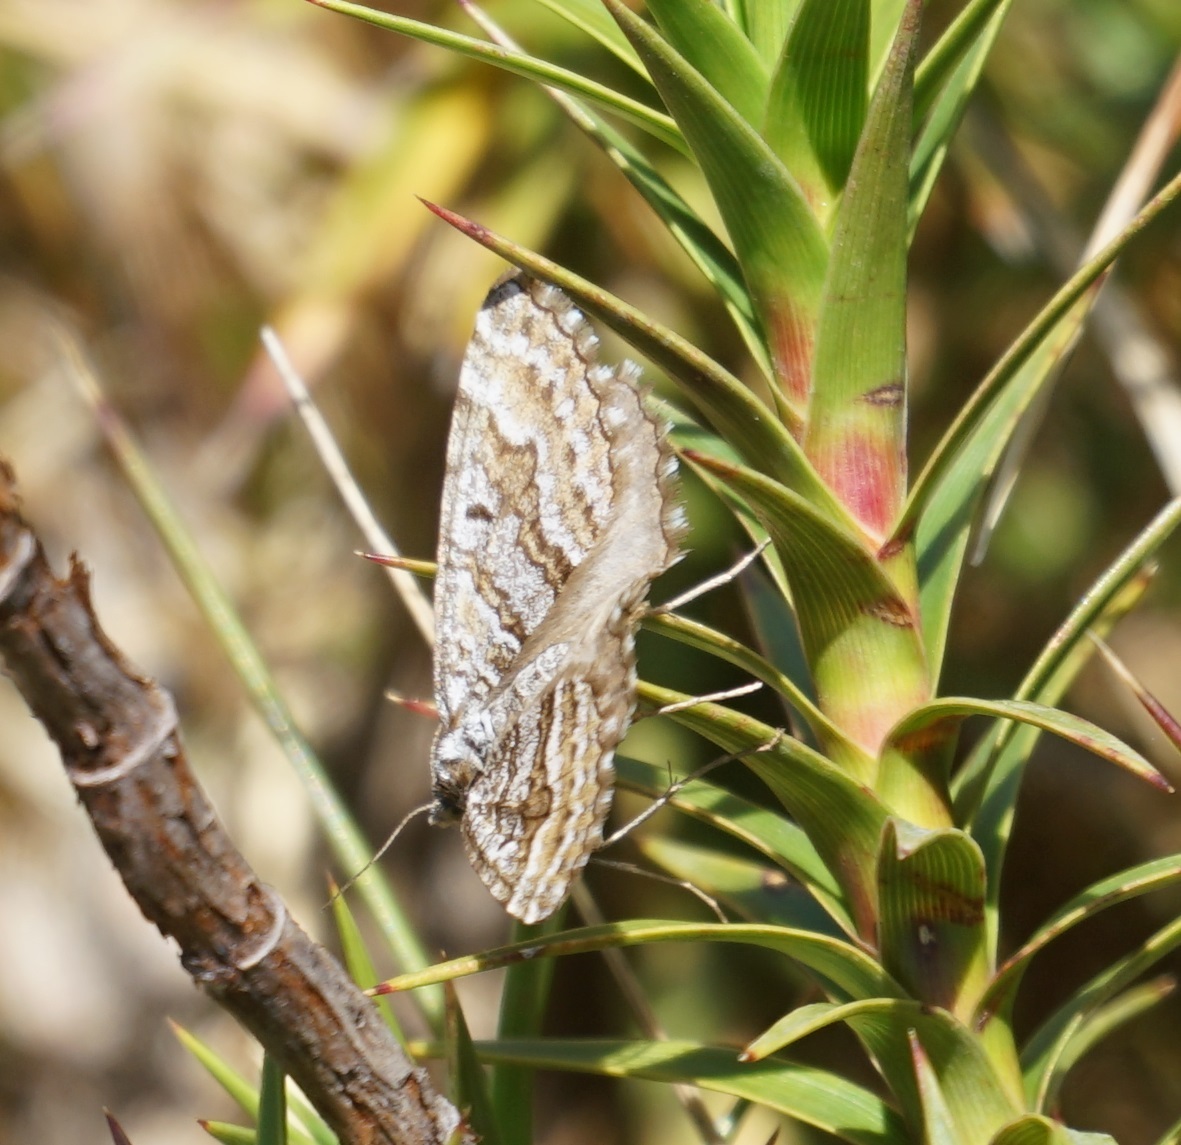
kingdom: Animalia
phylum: Arthropoda
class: Insecta
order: Lepidoptera
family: Geometridae
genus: Chrysolarentia
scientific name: Chrysolarentia nephodes
